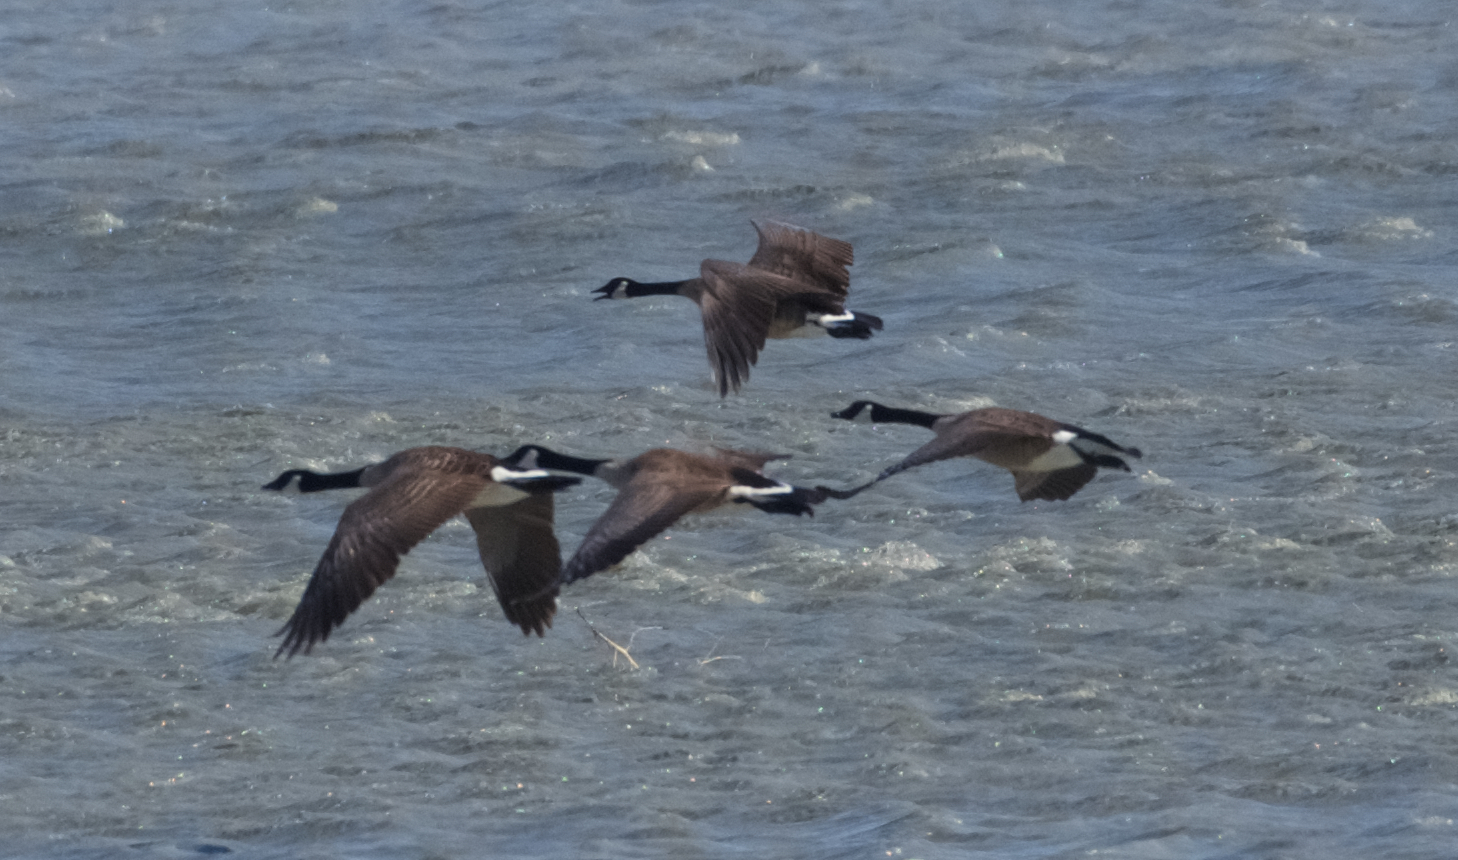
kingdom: Animalia
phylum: Chordata
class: Aves
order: Anseriformes
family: Anatidae
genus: Branta
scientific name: Branta canadensis
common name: Canada goose
